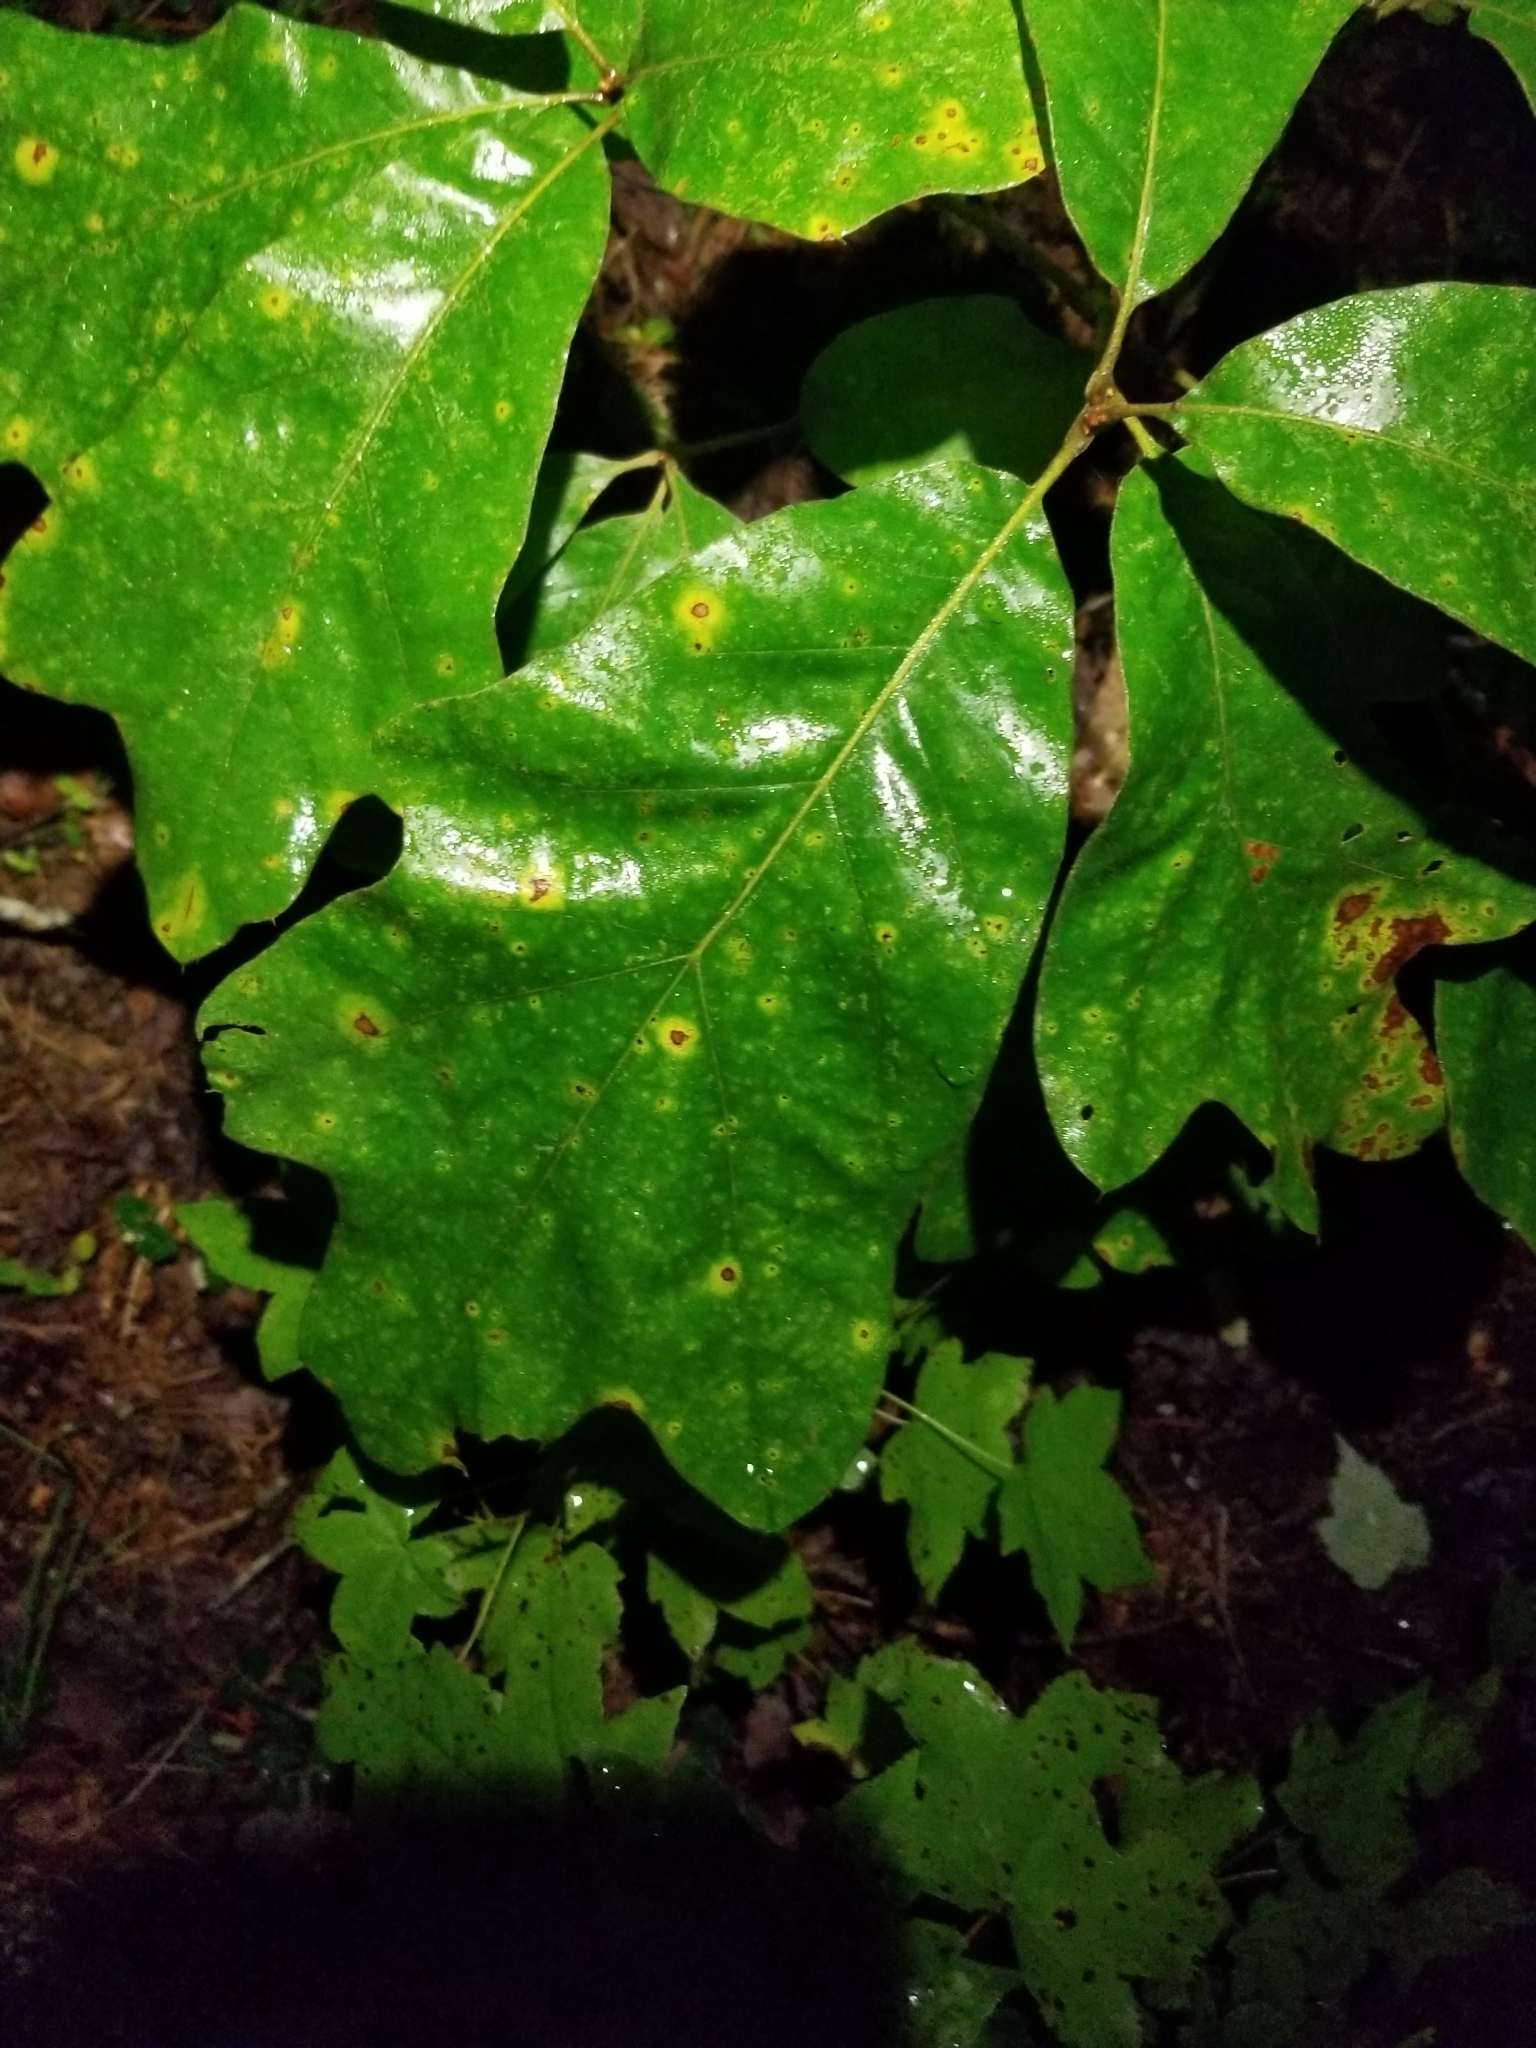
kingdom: Plantae
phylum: Tracheophyta
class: Magnoliopsida
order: Fagales
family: Fagaceae
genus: Quercus
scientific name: Quercus falcata
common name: Southern red oak
